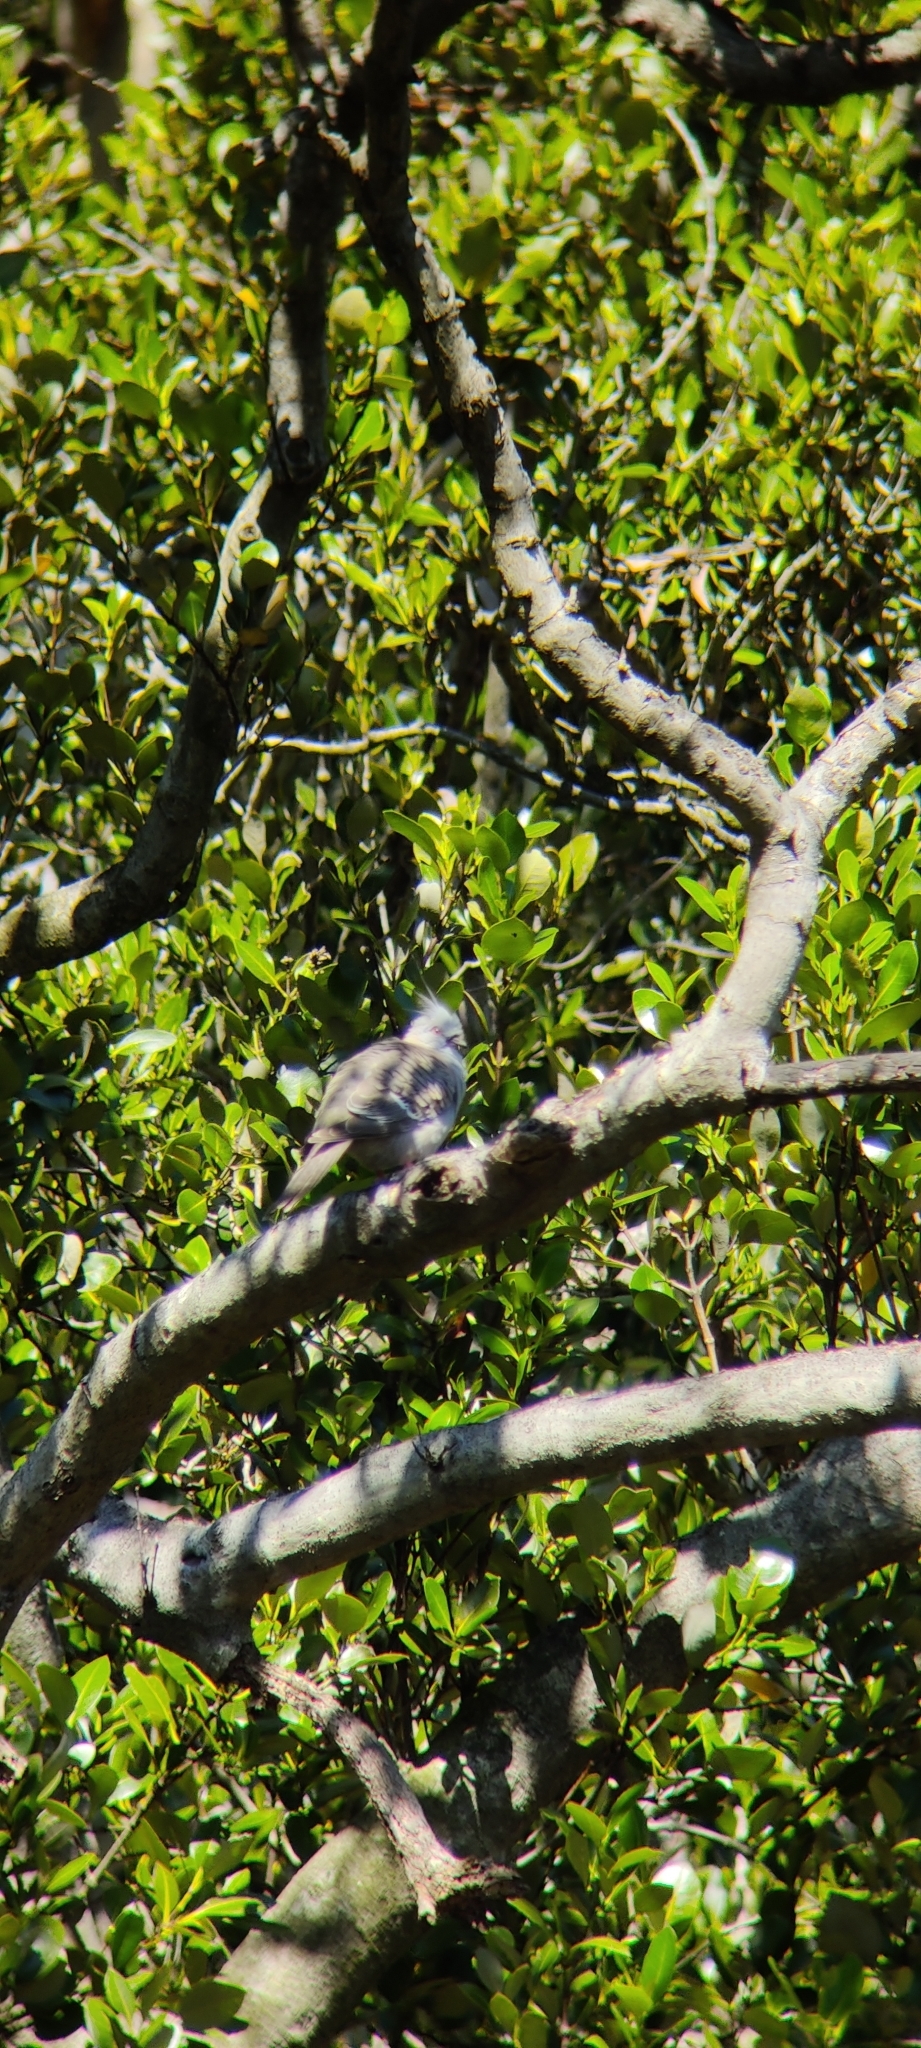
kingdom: Animalia
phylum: Chordata
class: Aves
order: Columbiformes
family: Columbidae
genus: Ocyphaps
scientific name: Ocyphaps lophotes
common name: Crested pigeon
